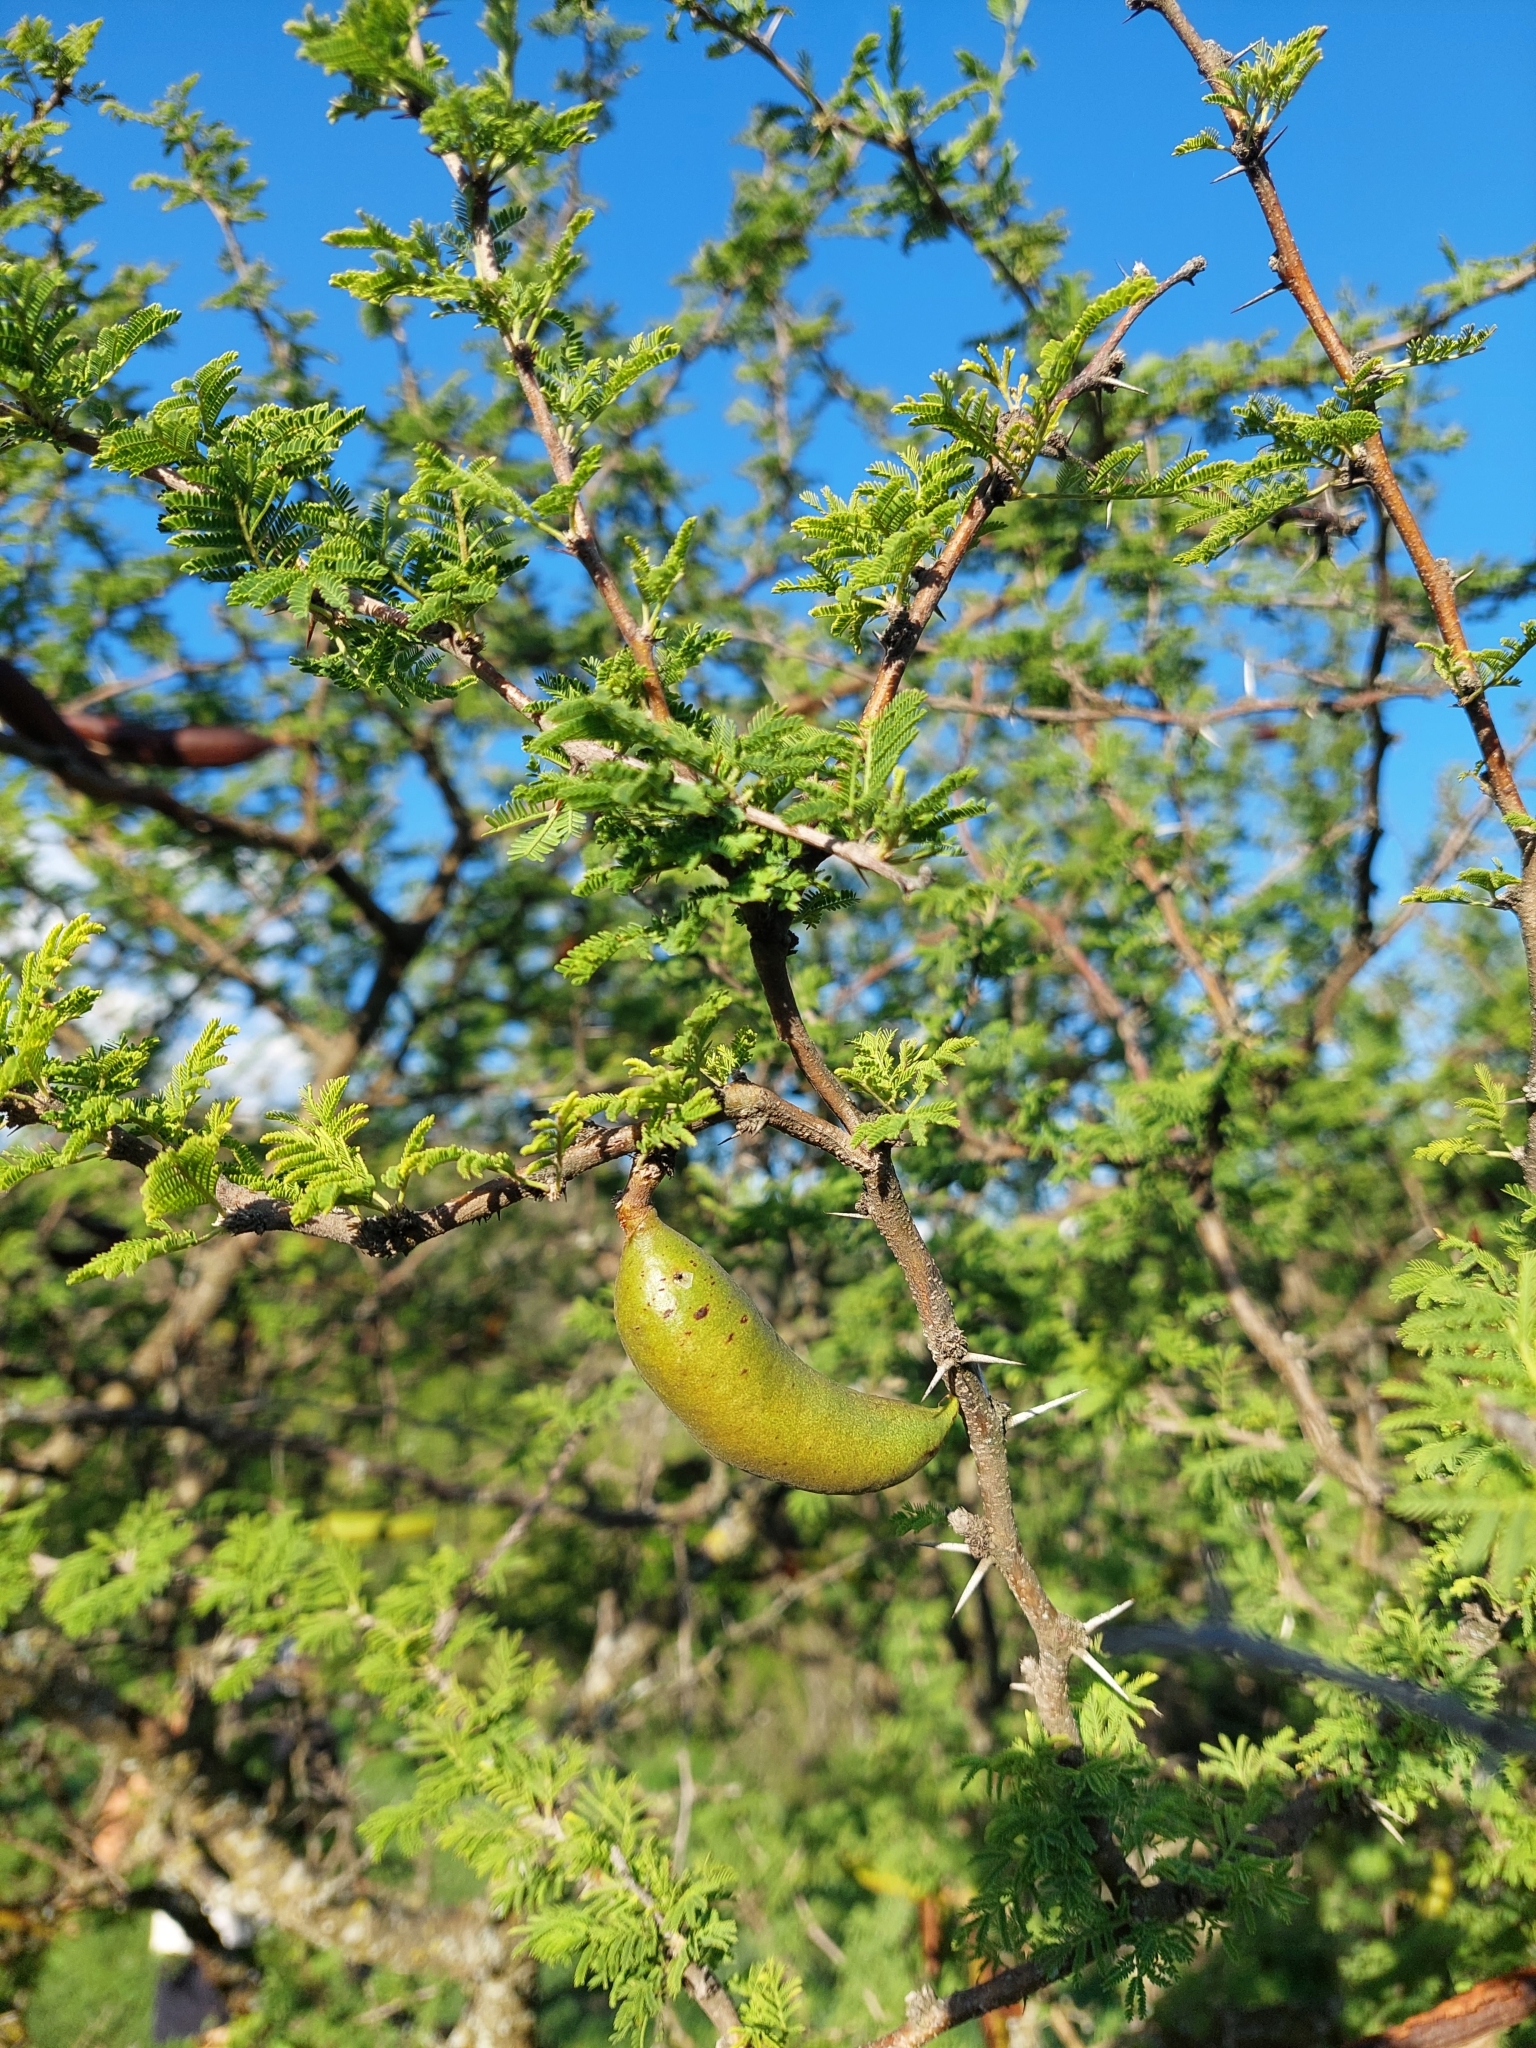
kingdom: Plantae
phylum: Tracheophyta
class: Magnoliopsida
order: Fabales
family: Fabaceae
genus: Vachellia
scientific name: Vachellia caven
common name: Roman cassie
